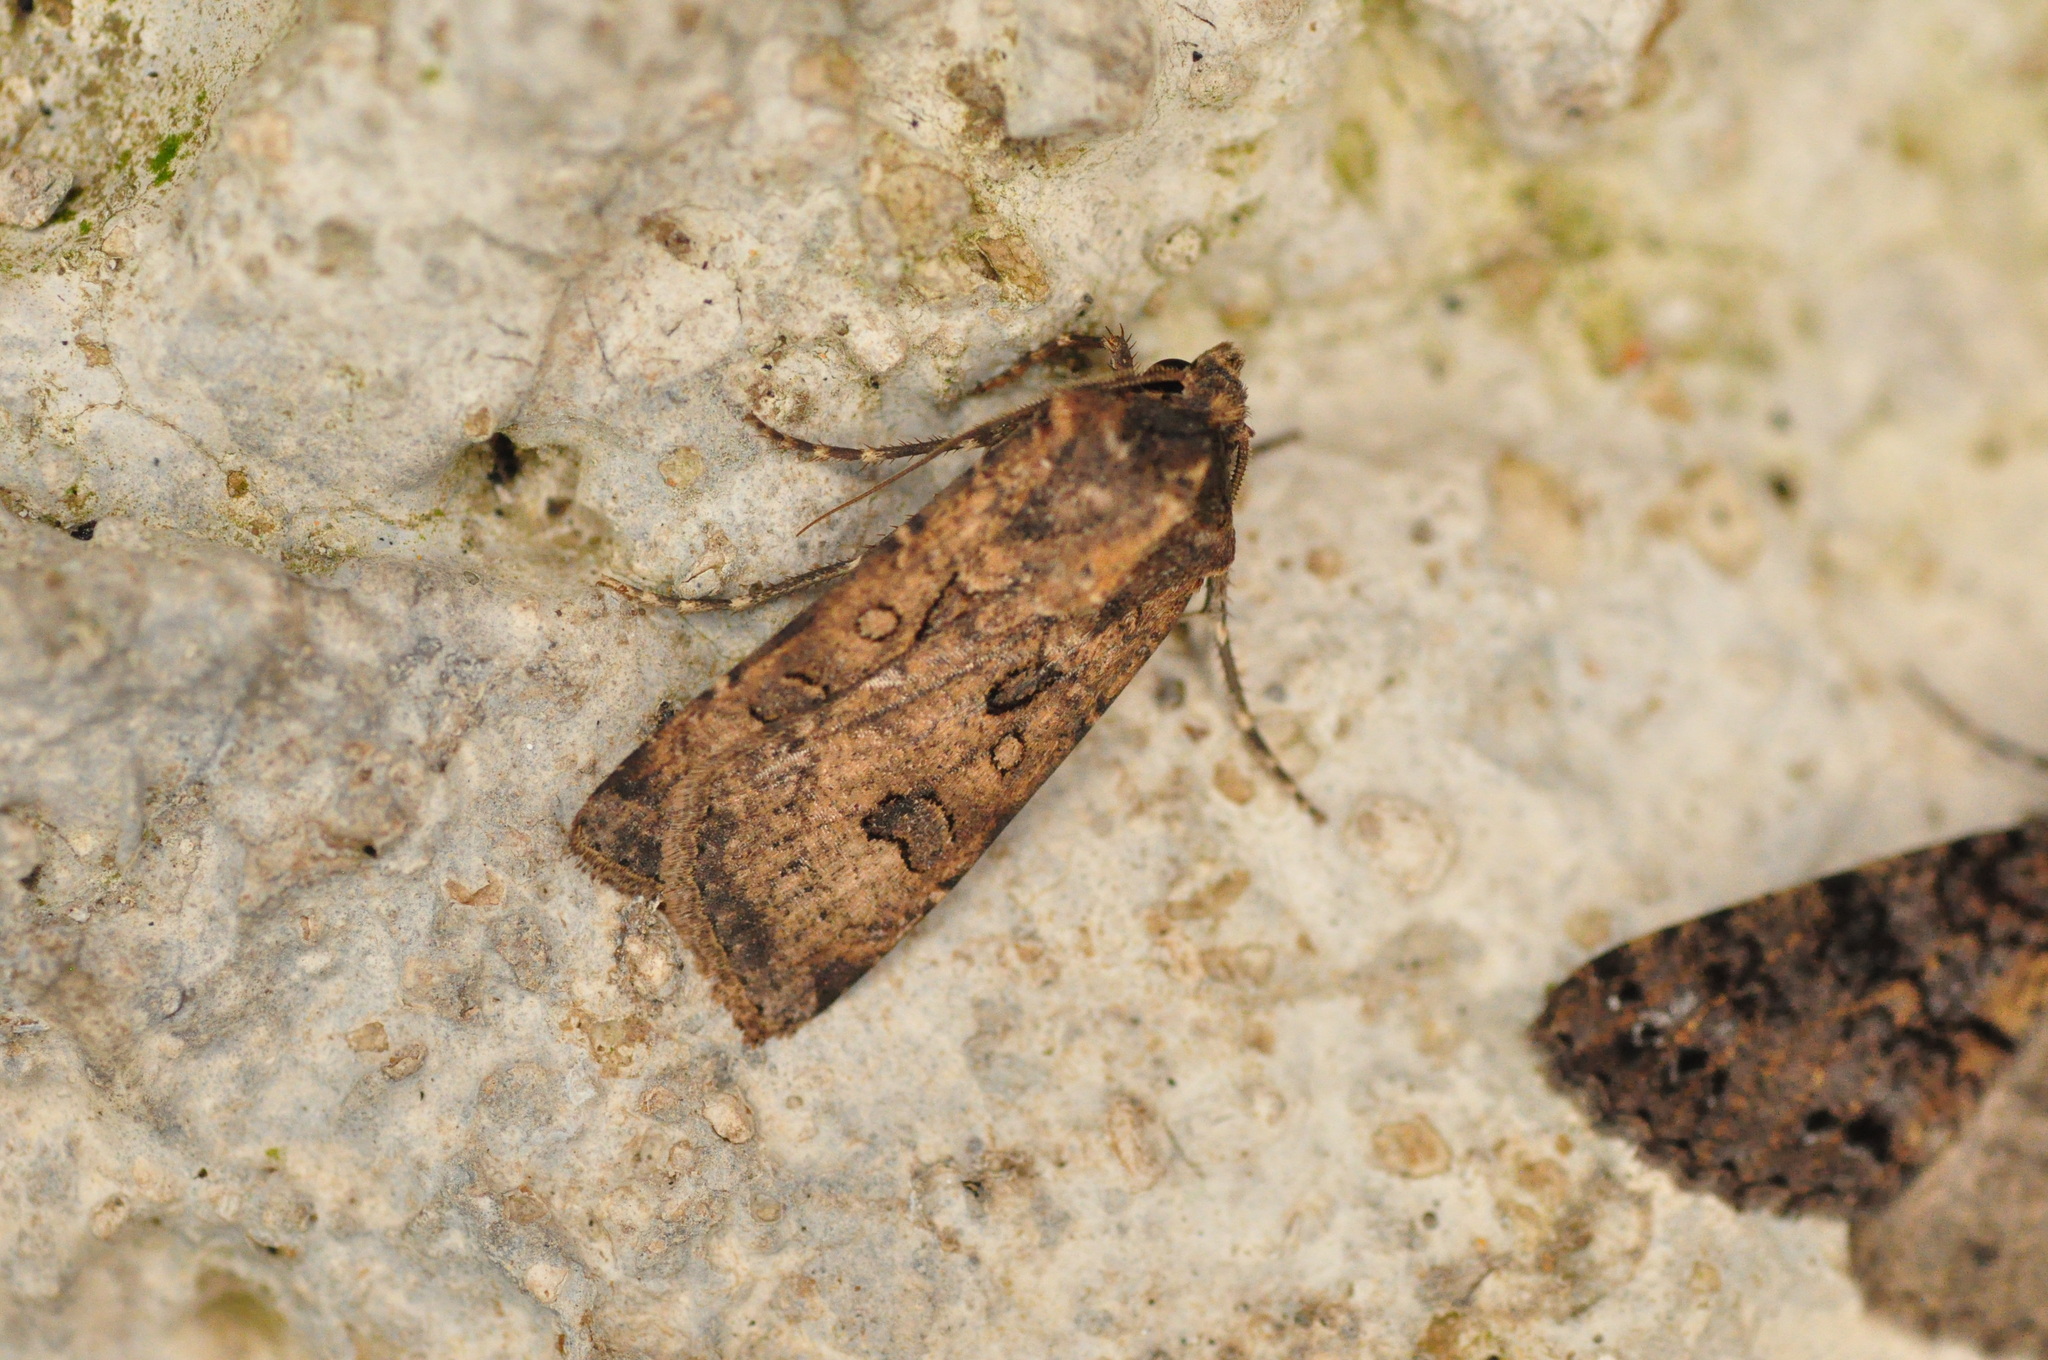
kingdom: Animalia
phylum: Arthropoda
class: Insecta
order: Lepidoptera
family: Noctuidae
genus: Agrotis
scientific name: Agrotis trux
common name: Crescent dart
